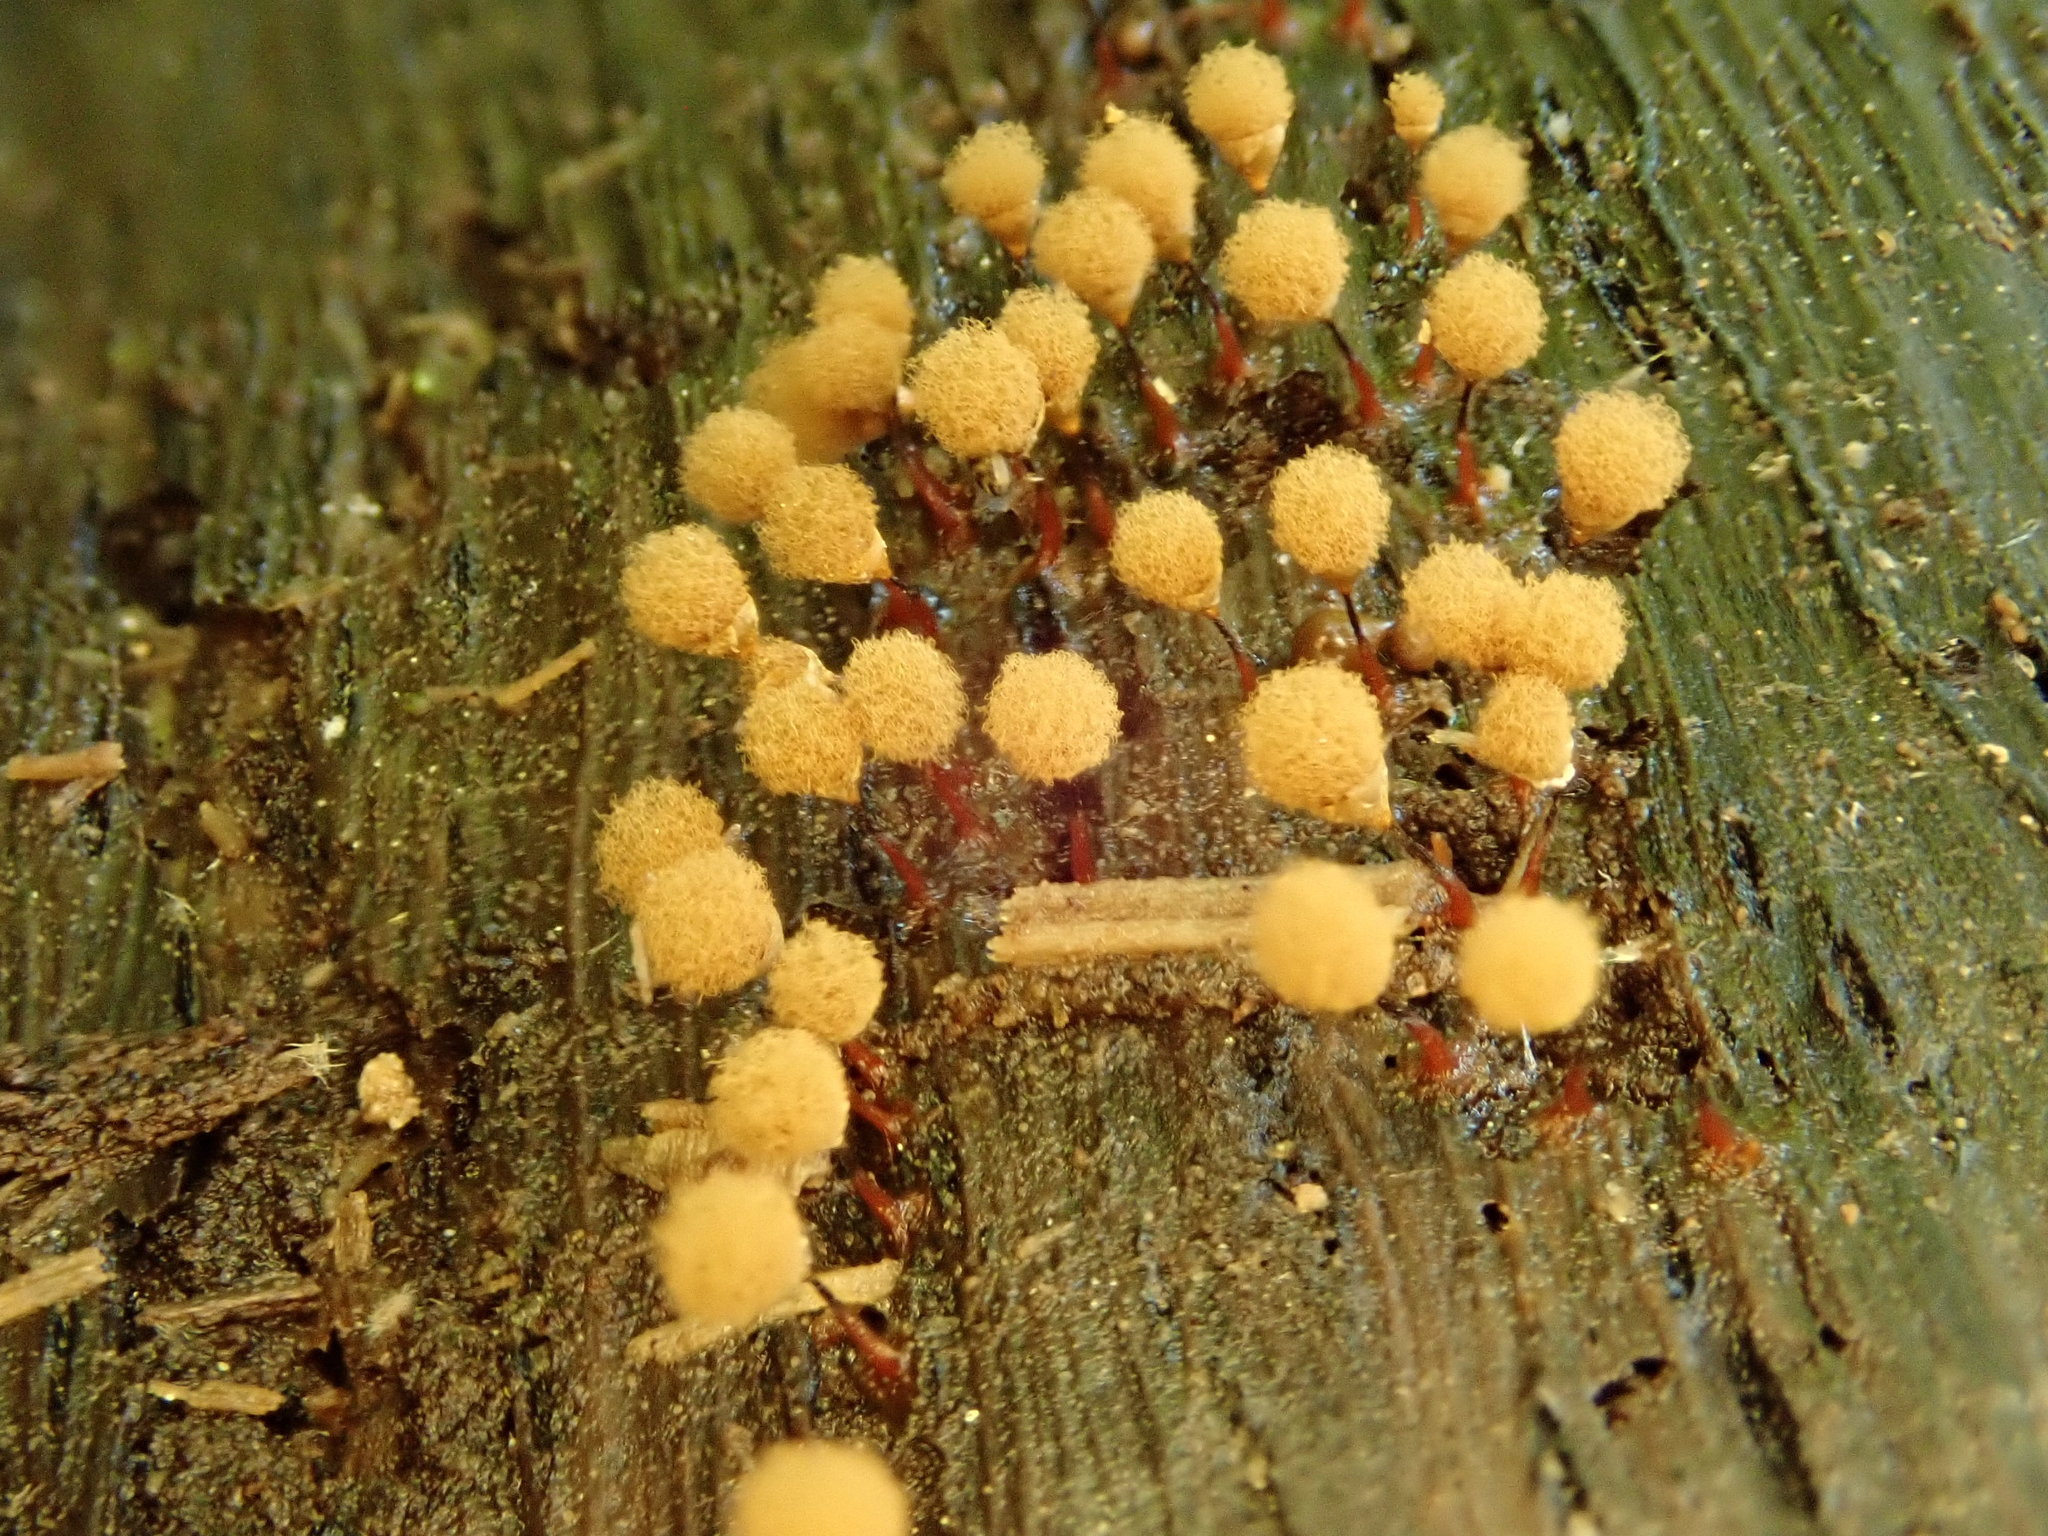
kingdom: Protozoa
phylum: Mycetozoa
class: Myxomycetes
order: Trichiales
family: Arcyriaceae
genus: Hemitrichia
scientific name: Hemitrichia calyculata
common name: Push pin slime mold
